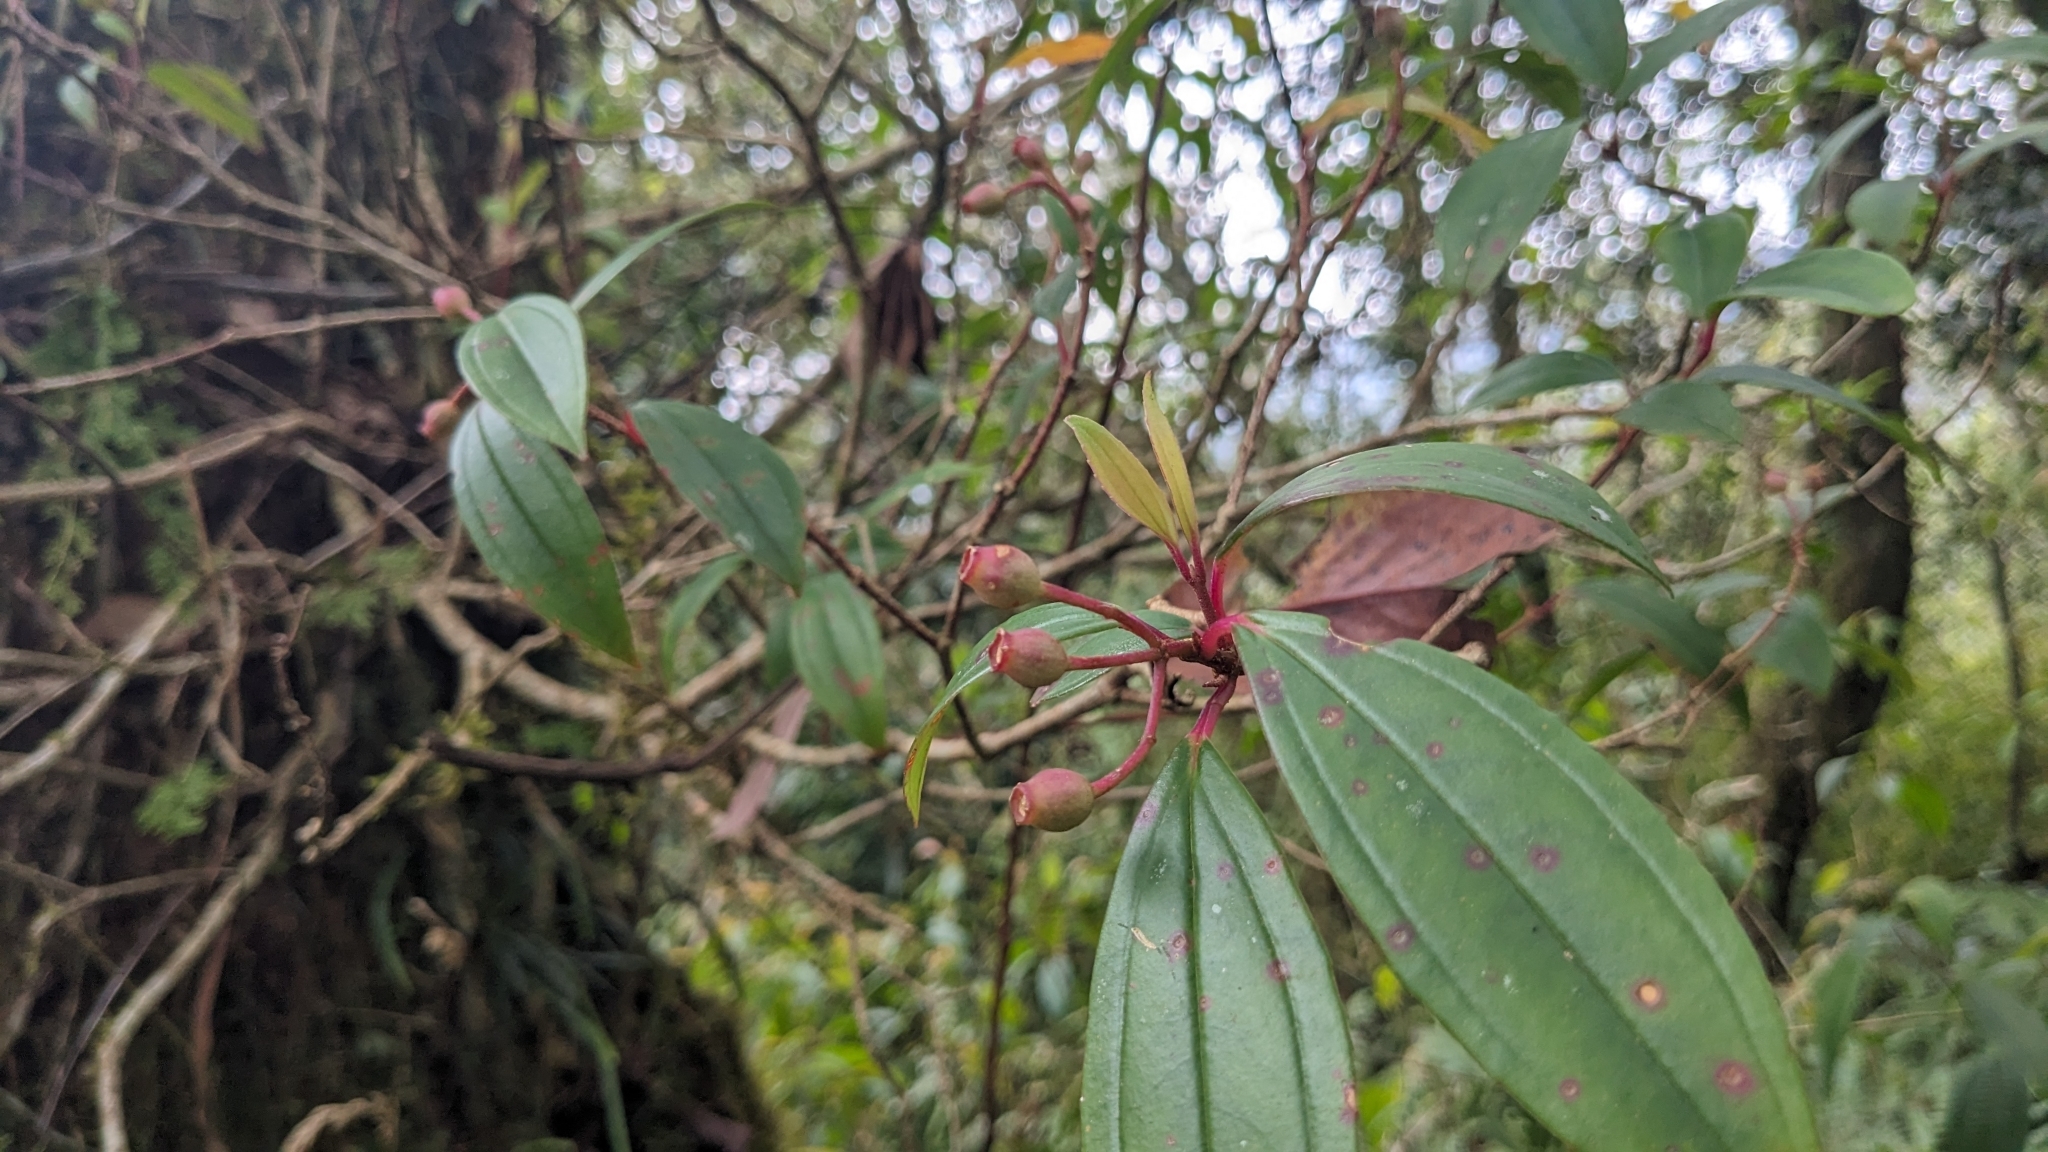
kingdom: Plantae
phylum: Tracheophyta
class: Magnoliopsida
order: Myrtales
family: Melastomataceae
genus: Medinilla
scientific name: Medinilla fengii
